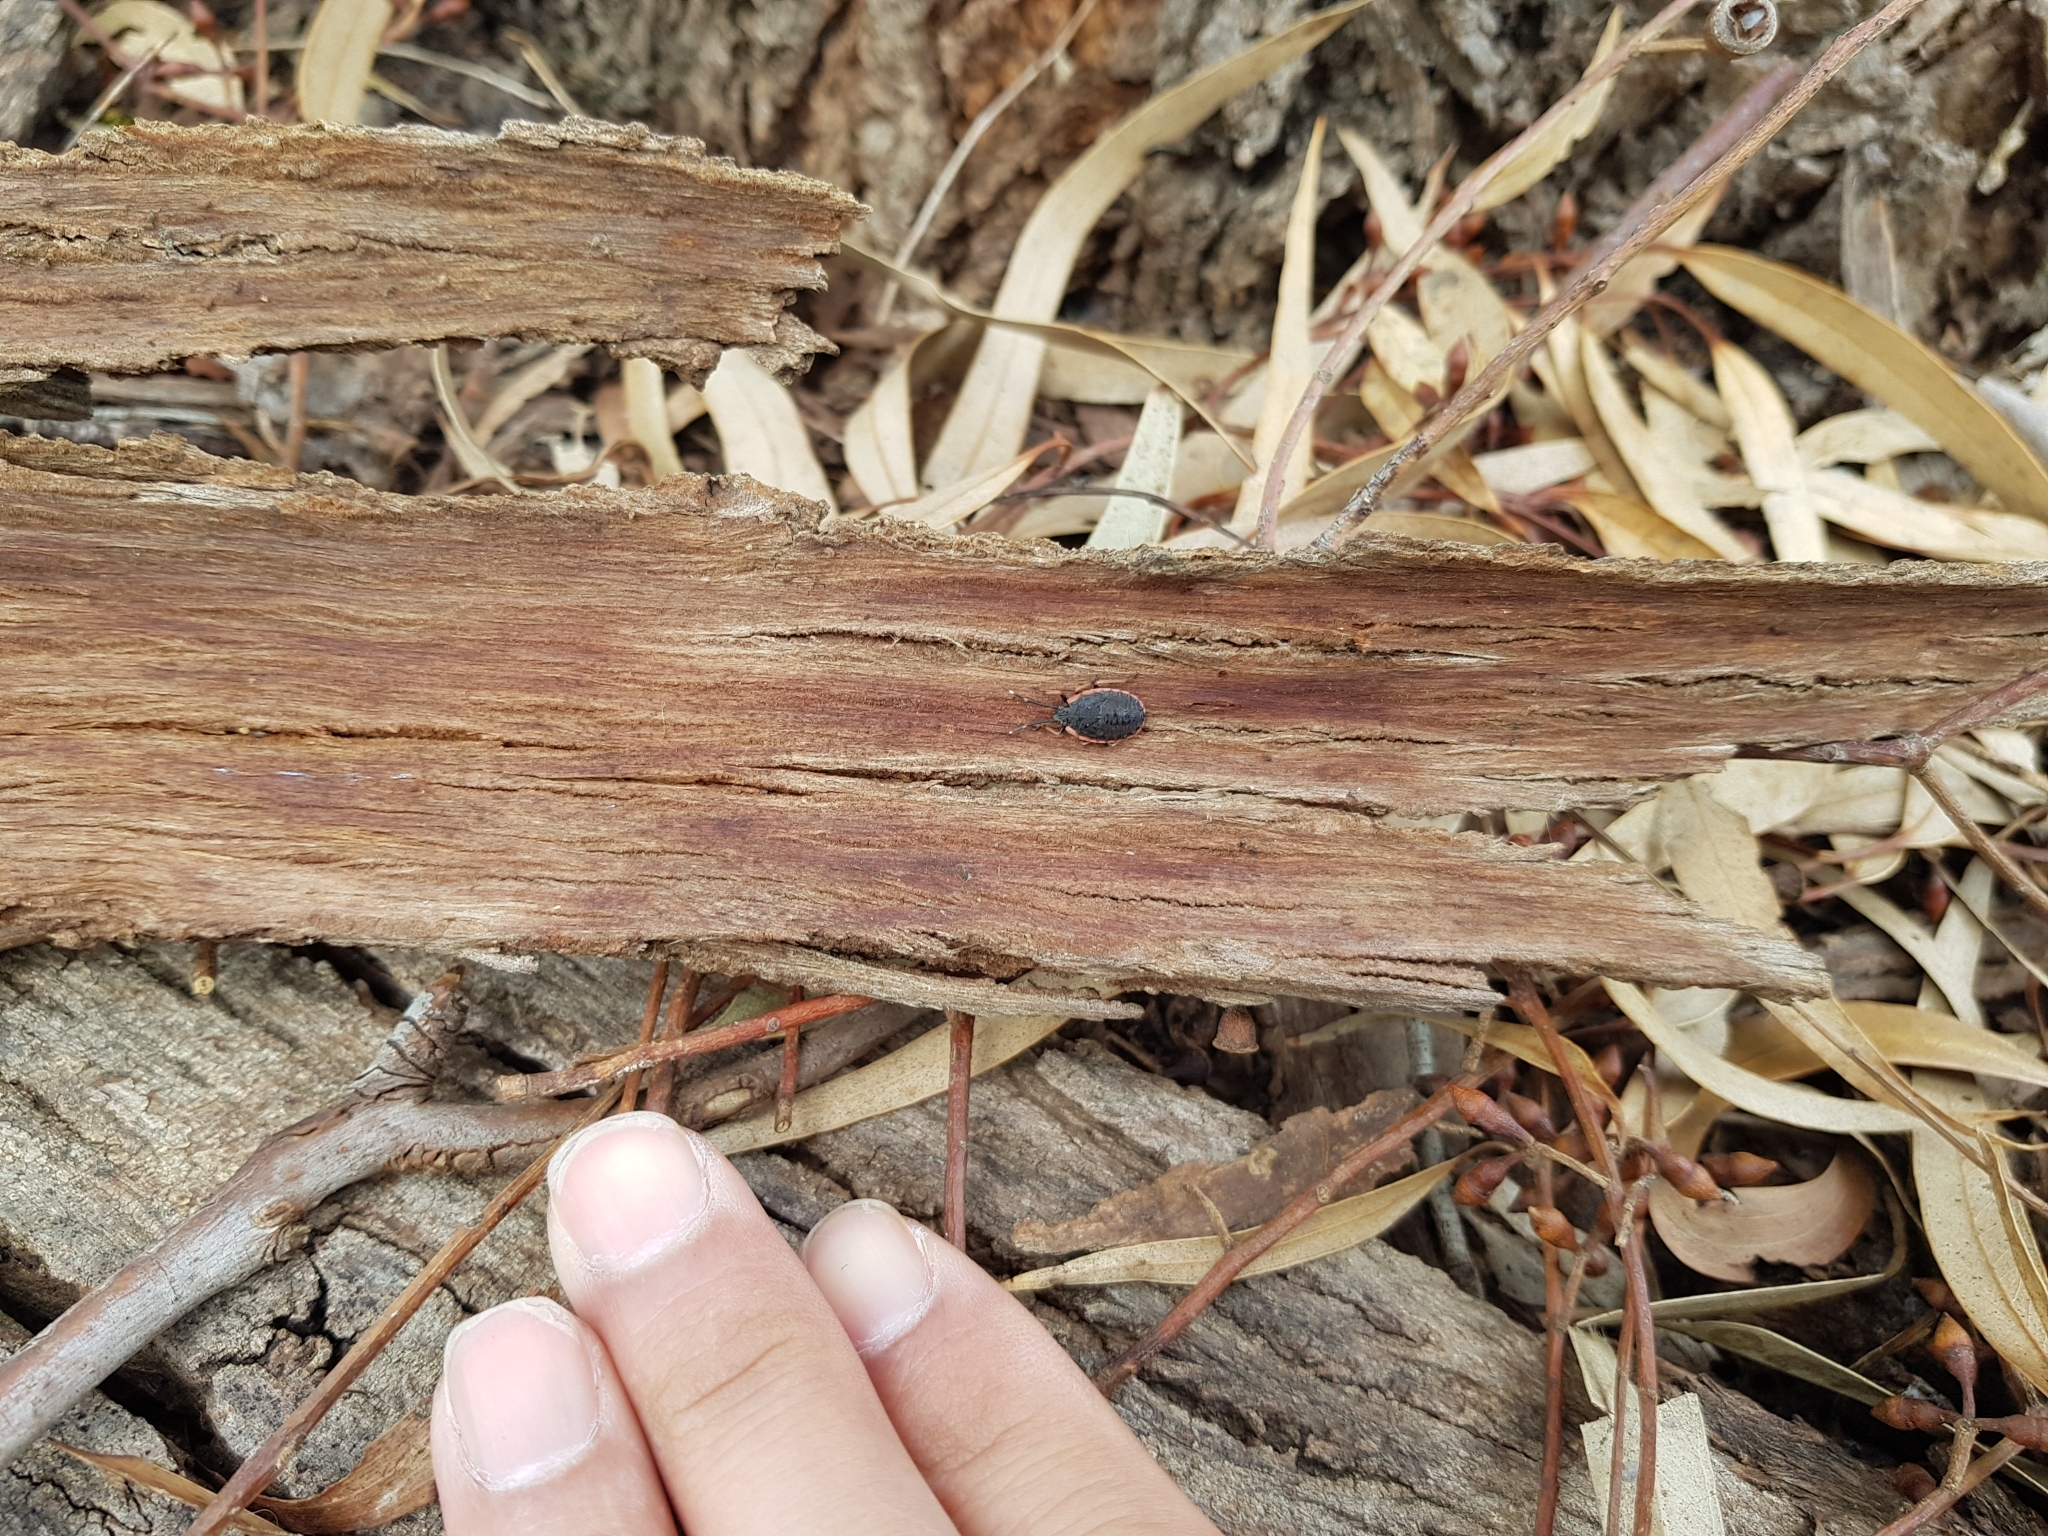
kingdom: Animalia
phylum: Arthropoda
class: Insecta
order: Hemiptera
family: Pentatomidae
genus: Diemenia
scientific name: Diemenia
